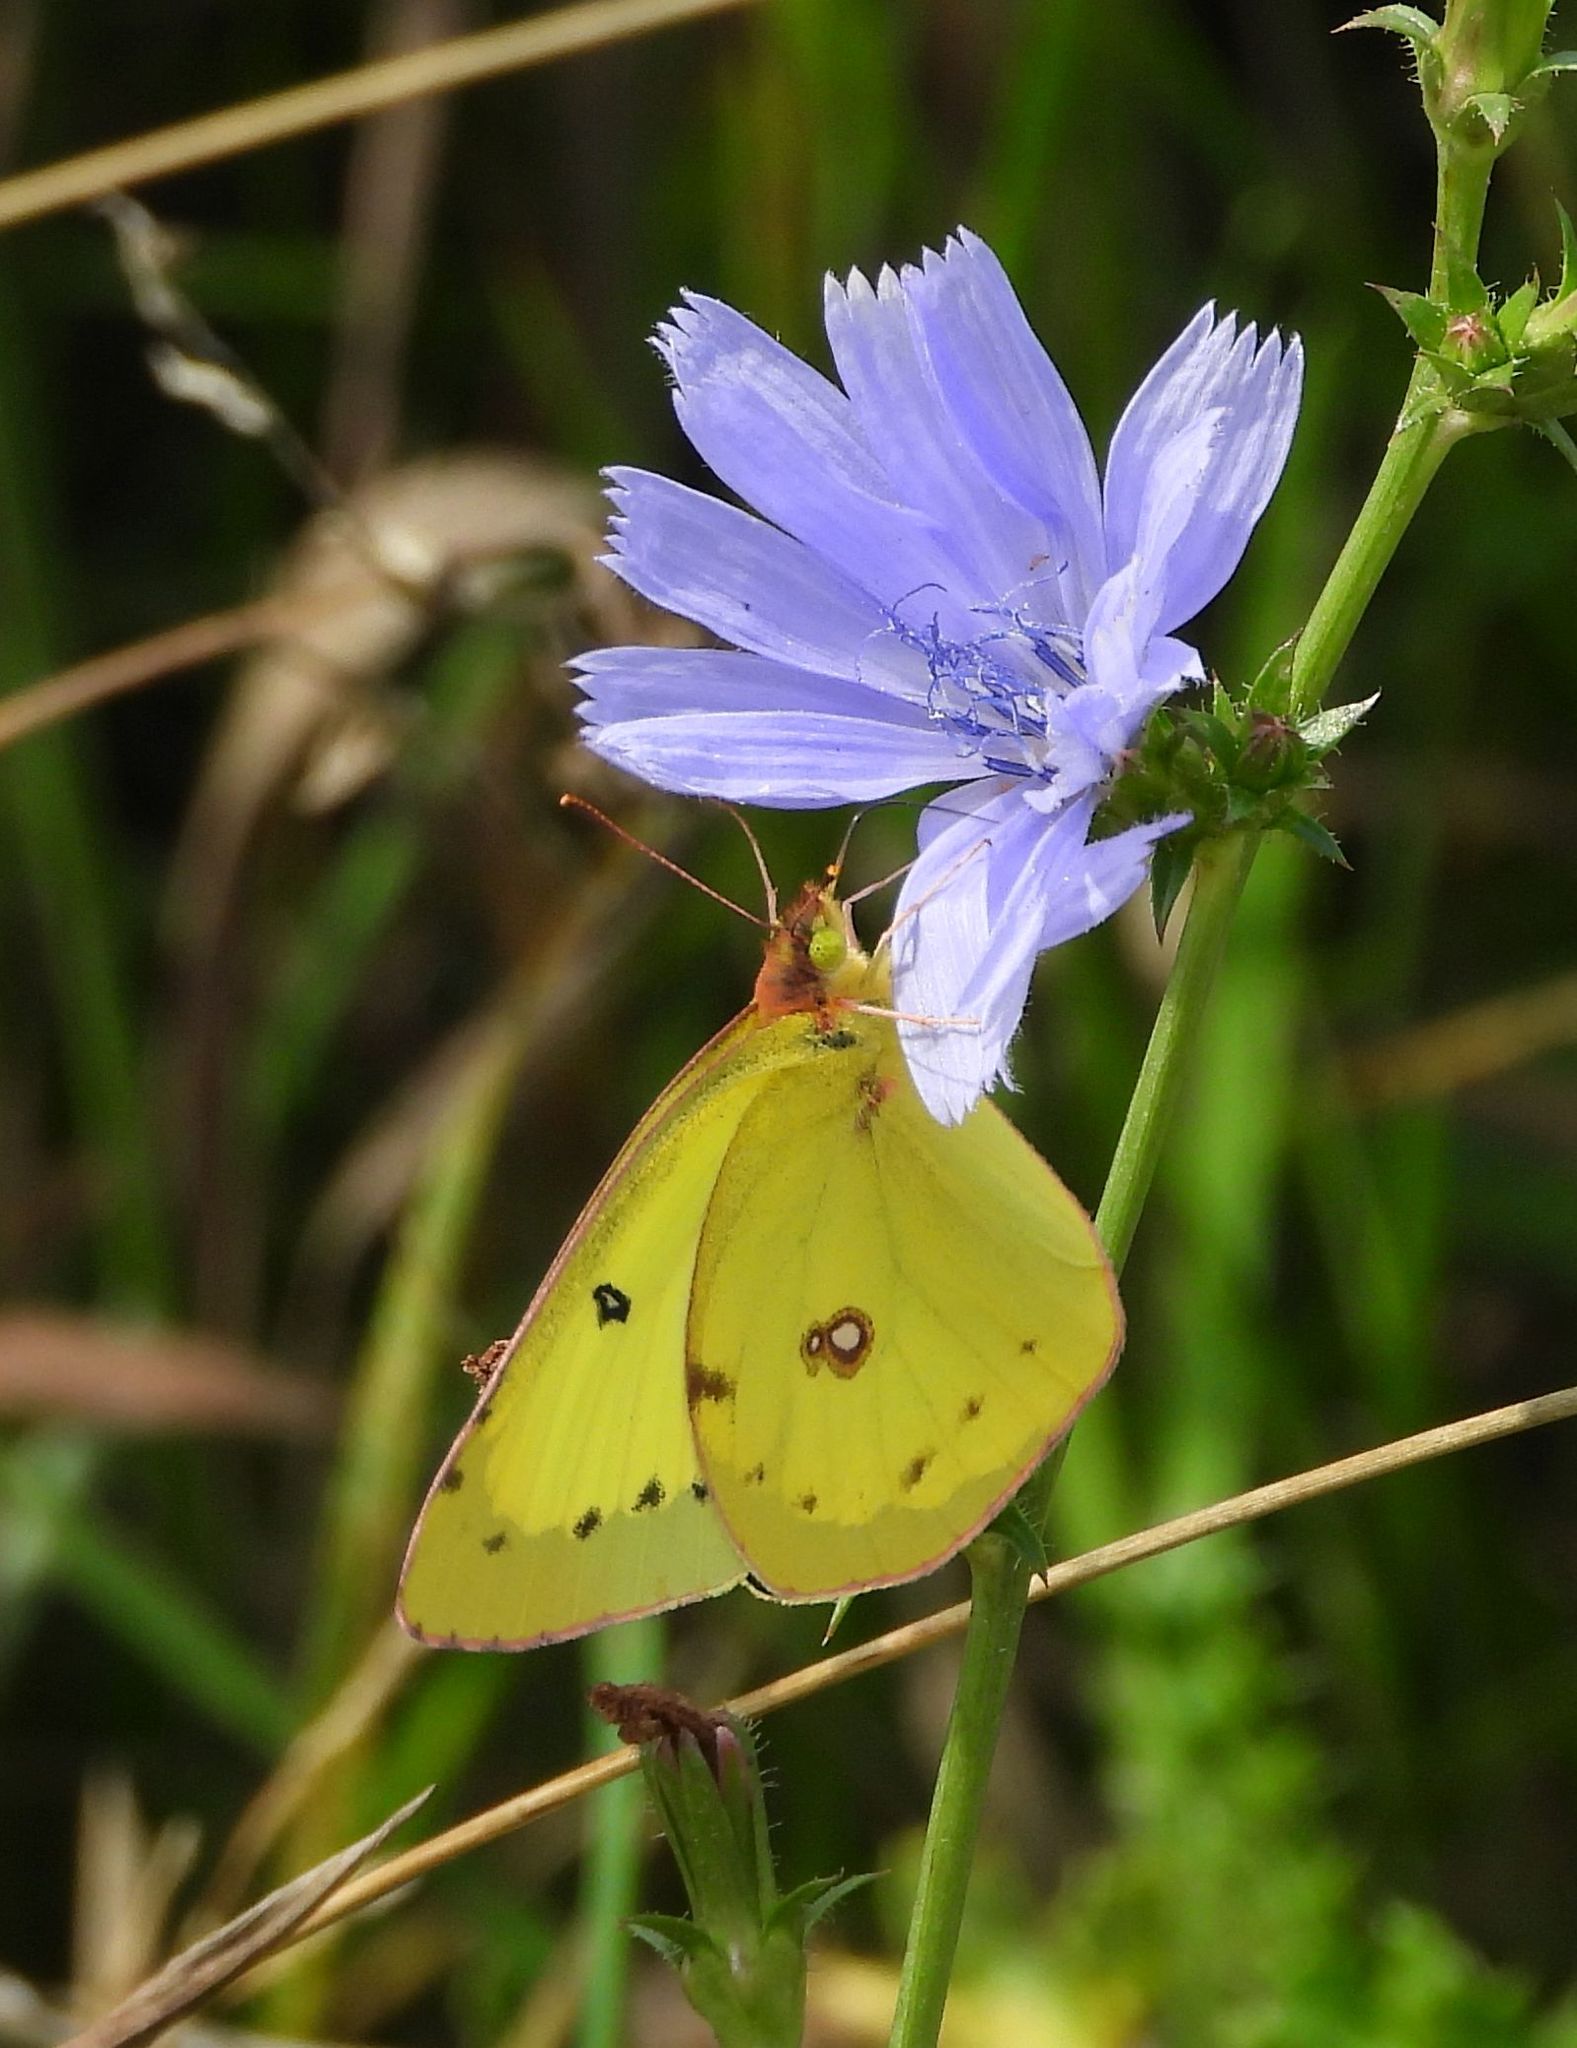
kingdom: Animalia
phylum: Arthropoda
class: Insecta
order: Lepidoptera
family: Pieridae
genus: Colias
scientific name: Colias philodice
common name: Clouded sulphur
